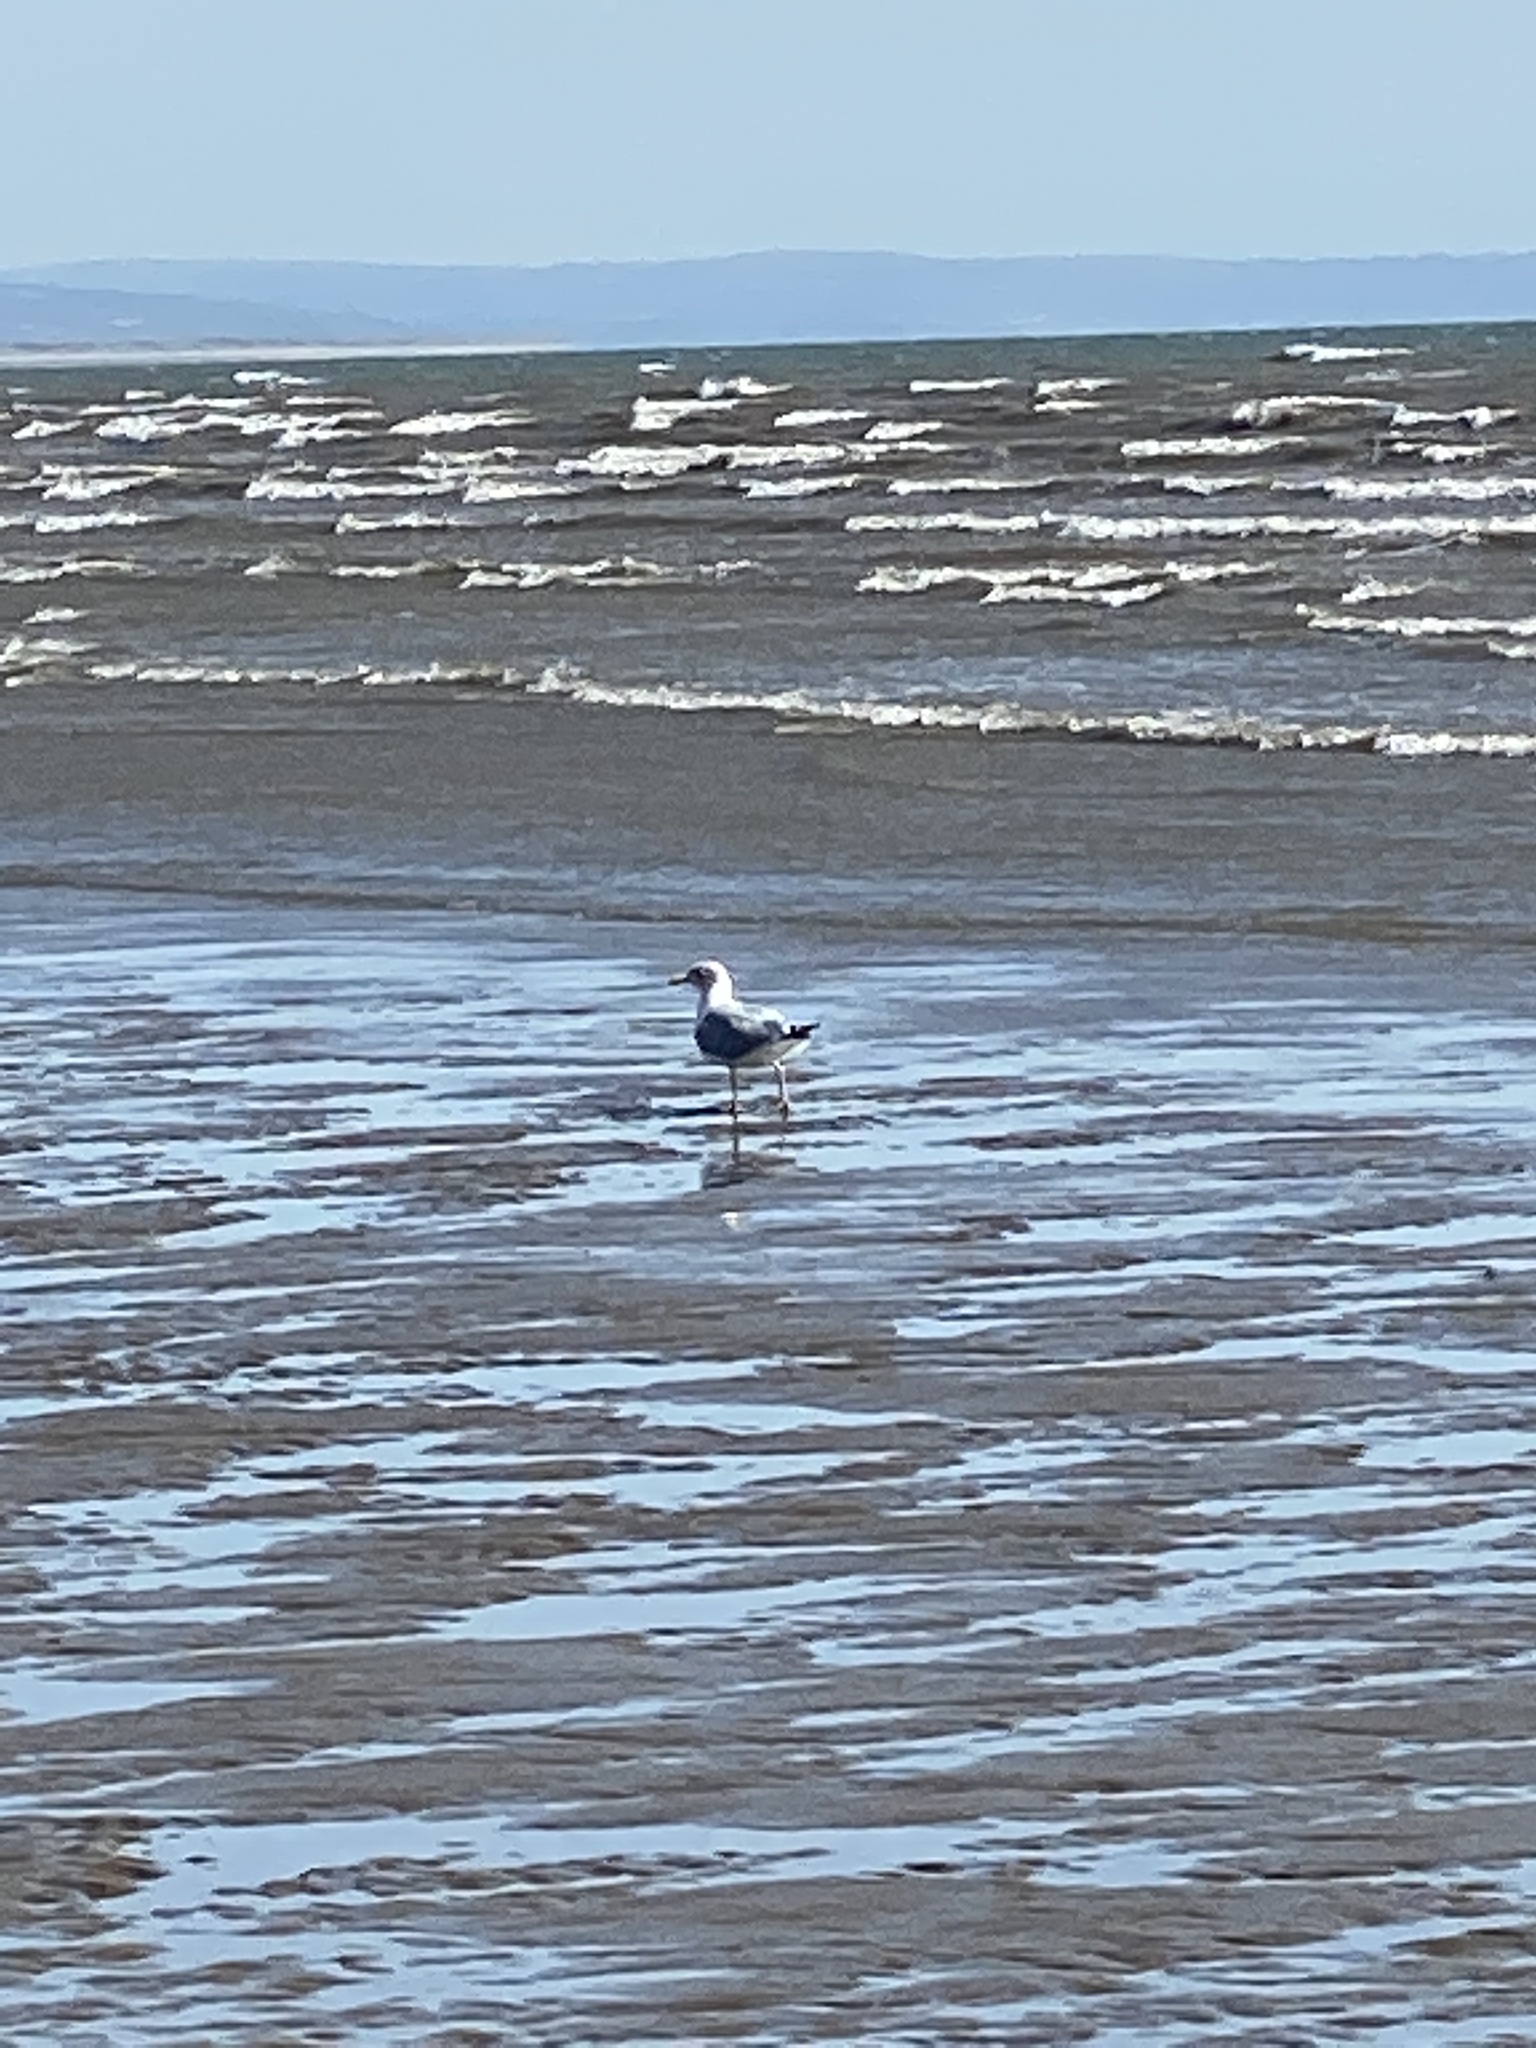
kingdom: Animalia
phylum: Chordata
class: Aves
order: Charadriiformes
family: Laridae
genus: Larus
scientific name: Larus argentatus
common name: Herring gull
